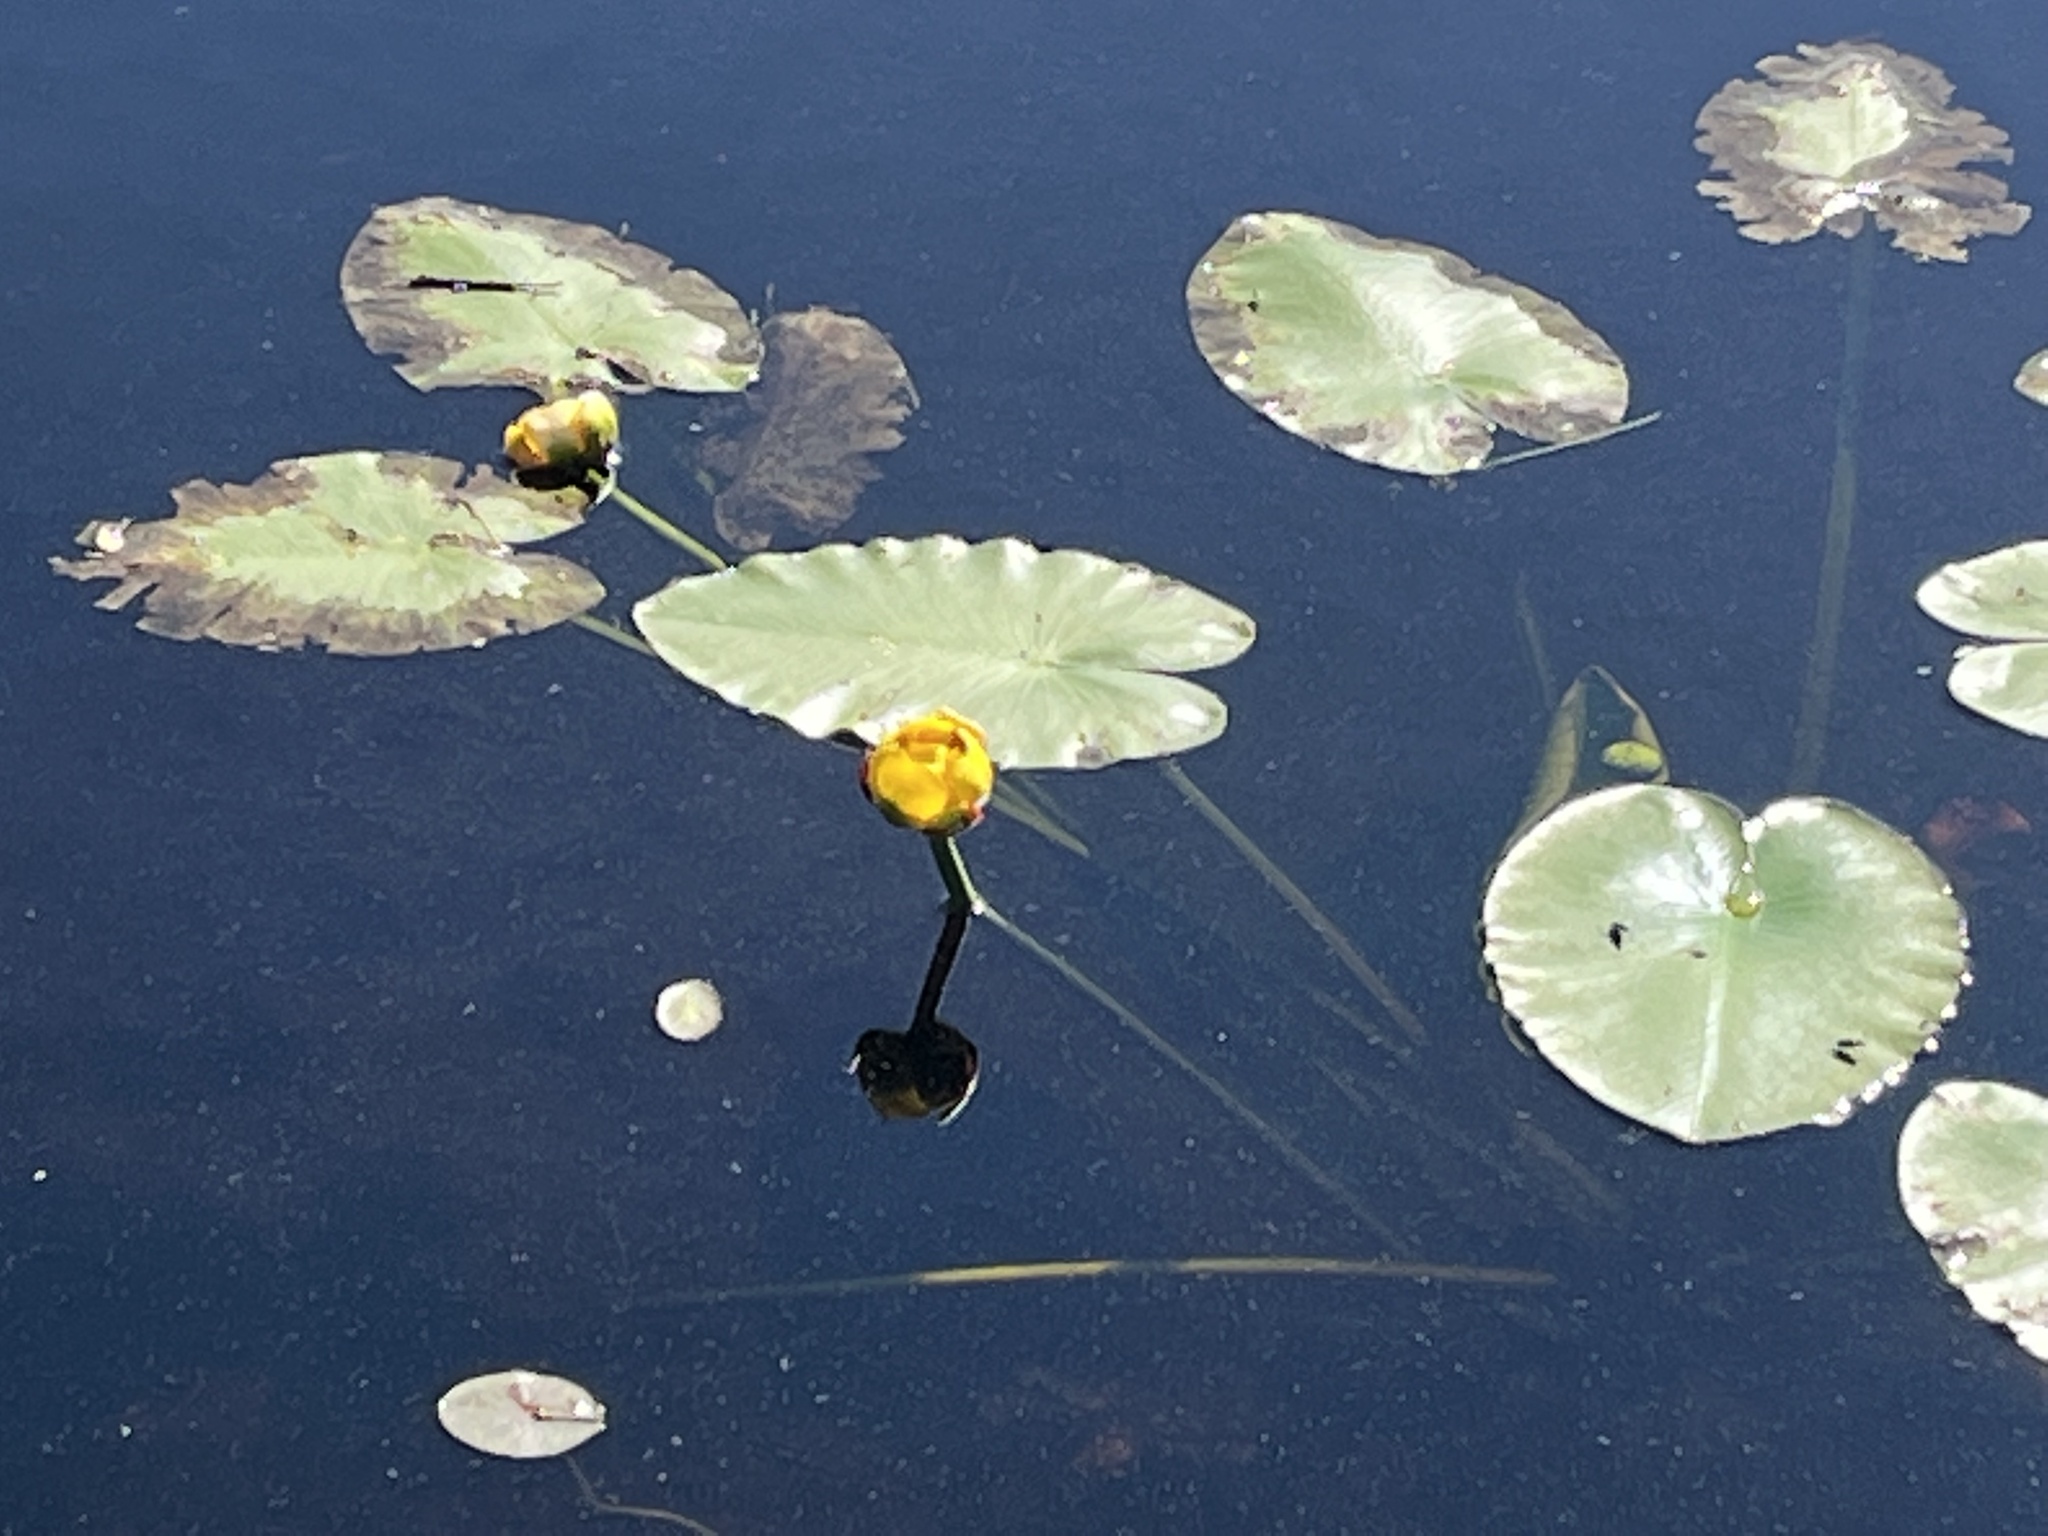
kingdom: Plantae
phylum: Tracheophyta
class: Magnoliopsida
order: Nymphaeales
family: Nymphaeaceae
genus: Nuphar
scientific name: Nuphar variegata
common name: Beaver-root
